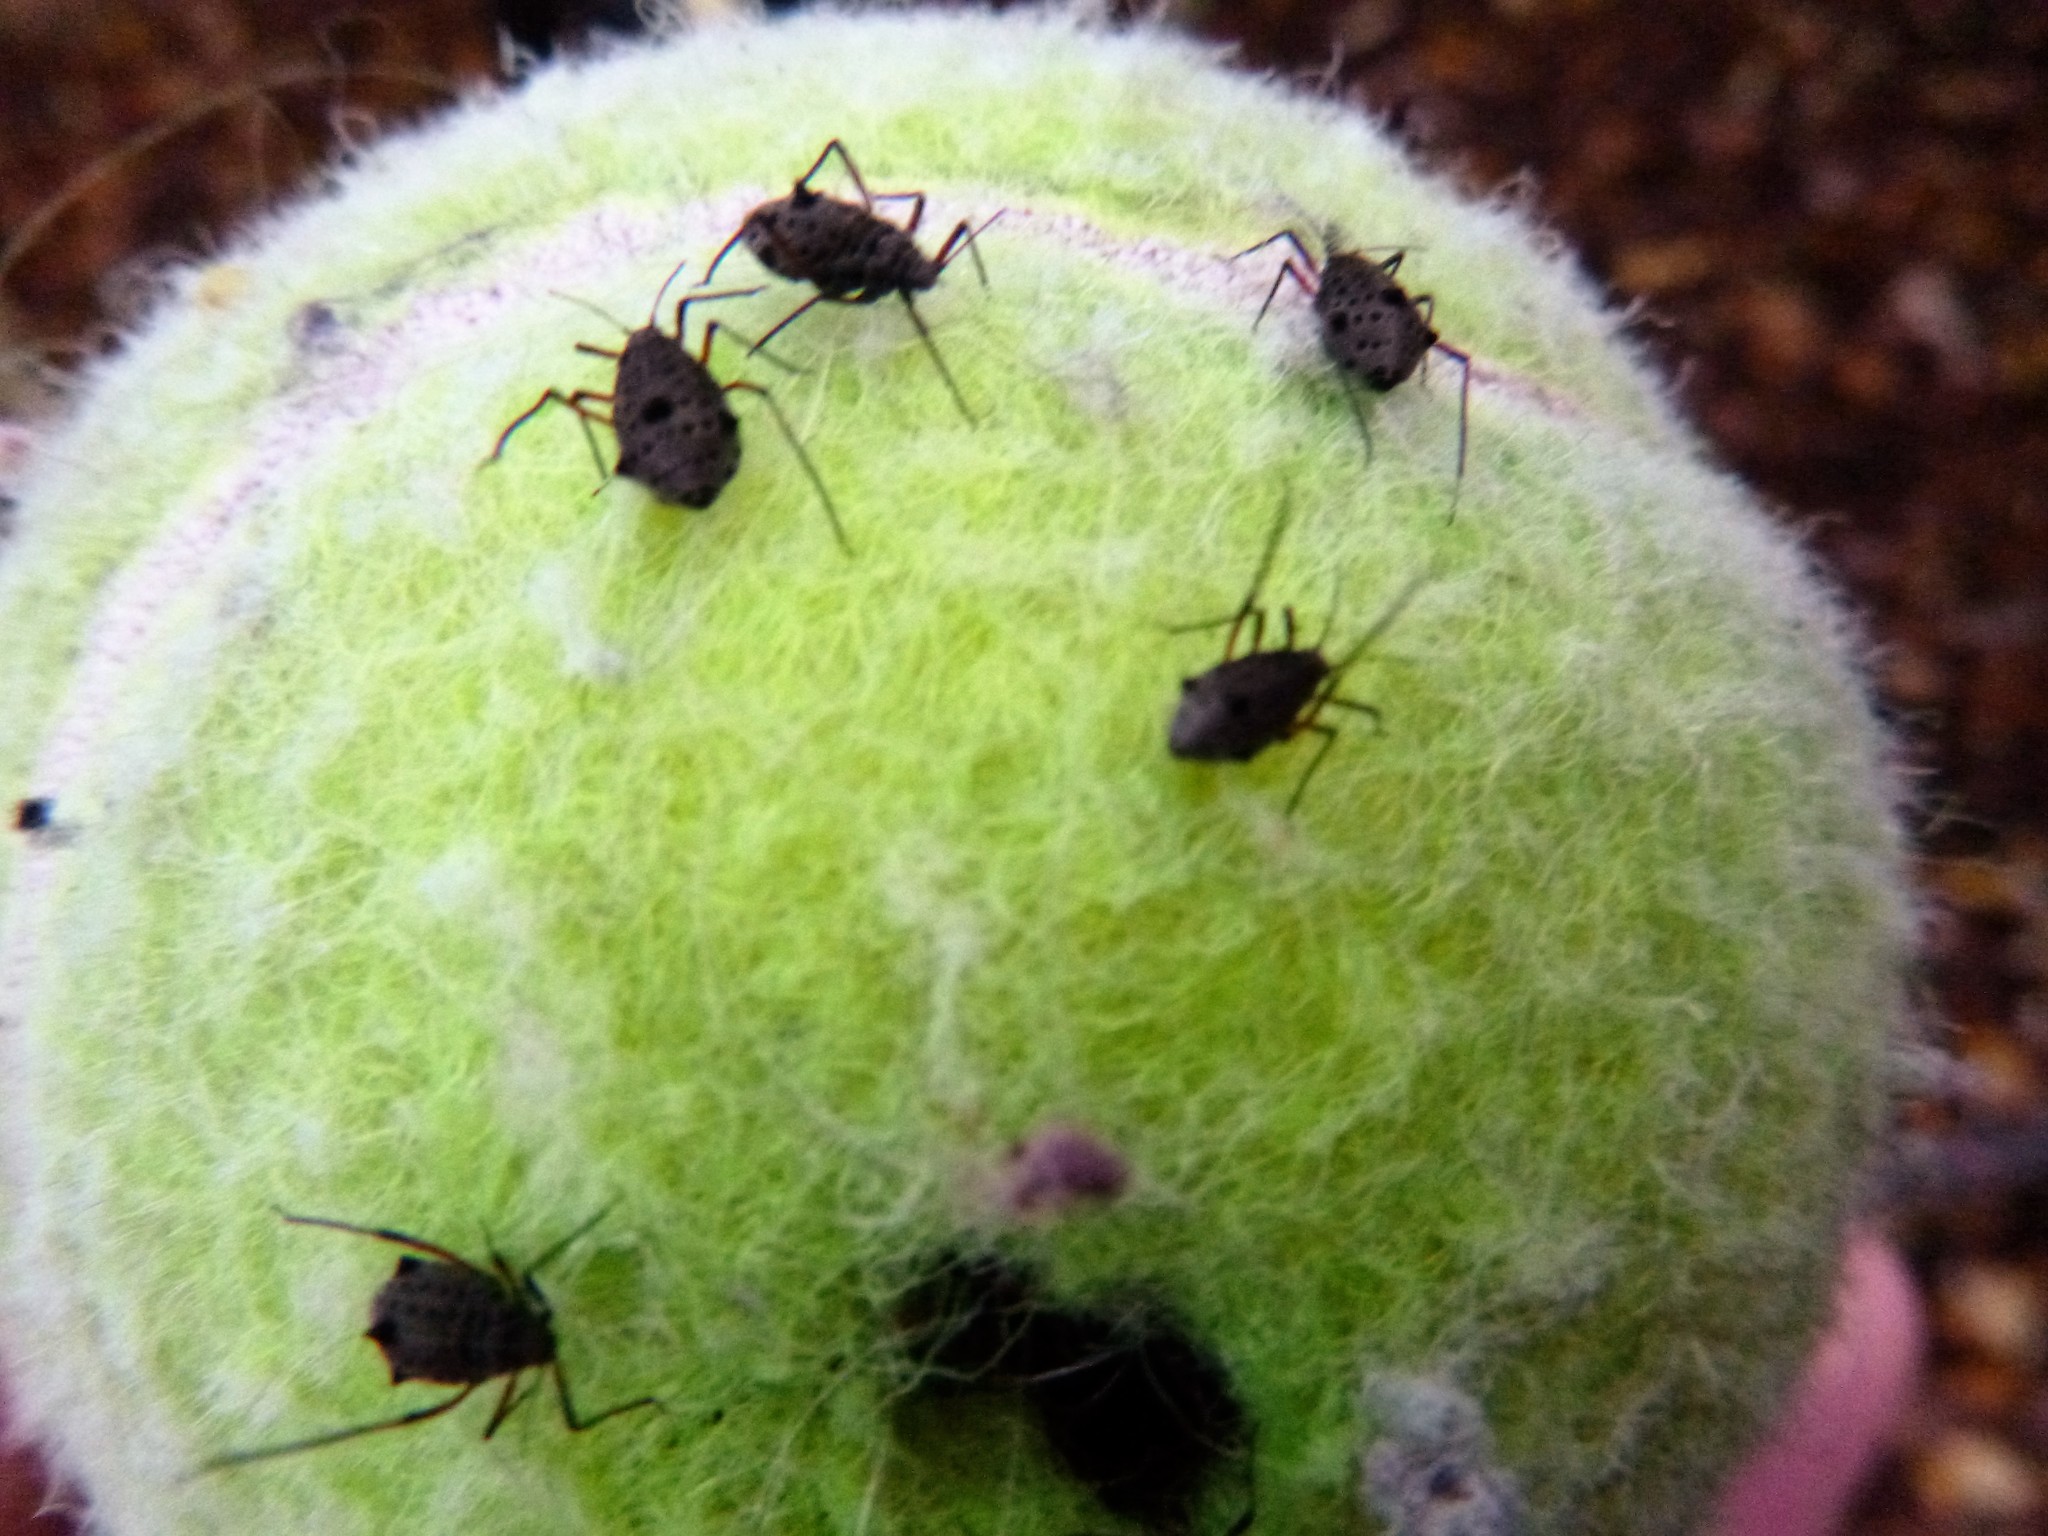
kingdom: Animalia
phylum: Arthropoda
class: Insecta
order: Hemiptera
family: Aphididae
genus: Tuberolachnus
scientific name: Tuberolachnus salignus
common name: Giant willow aphid
